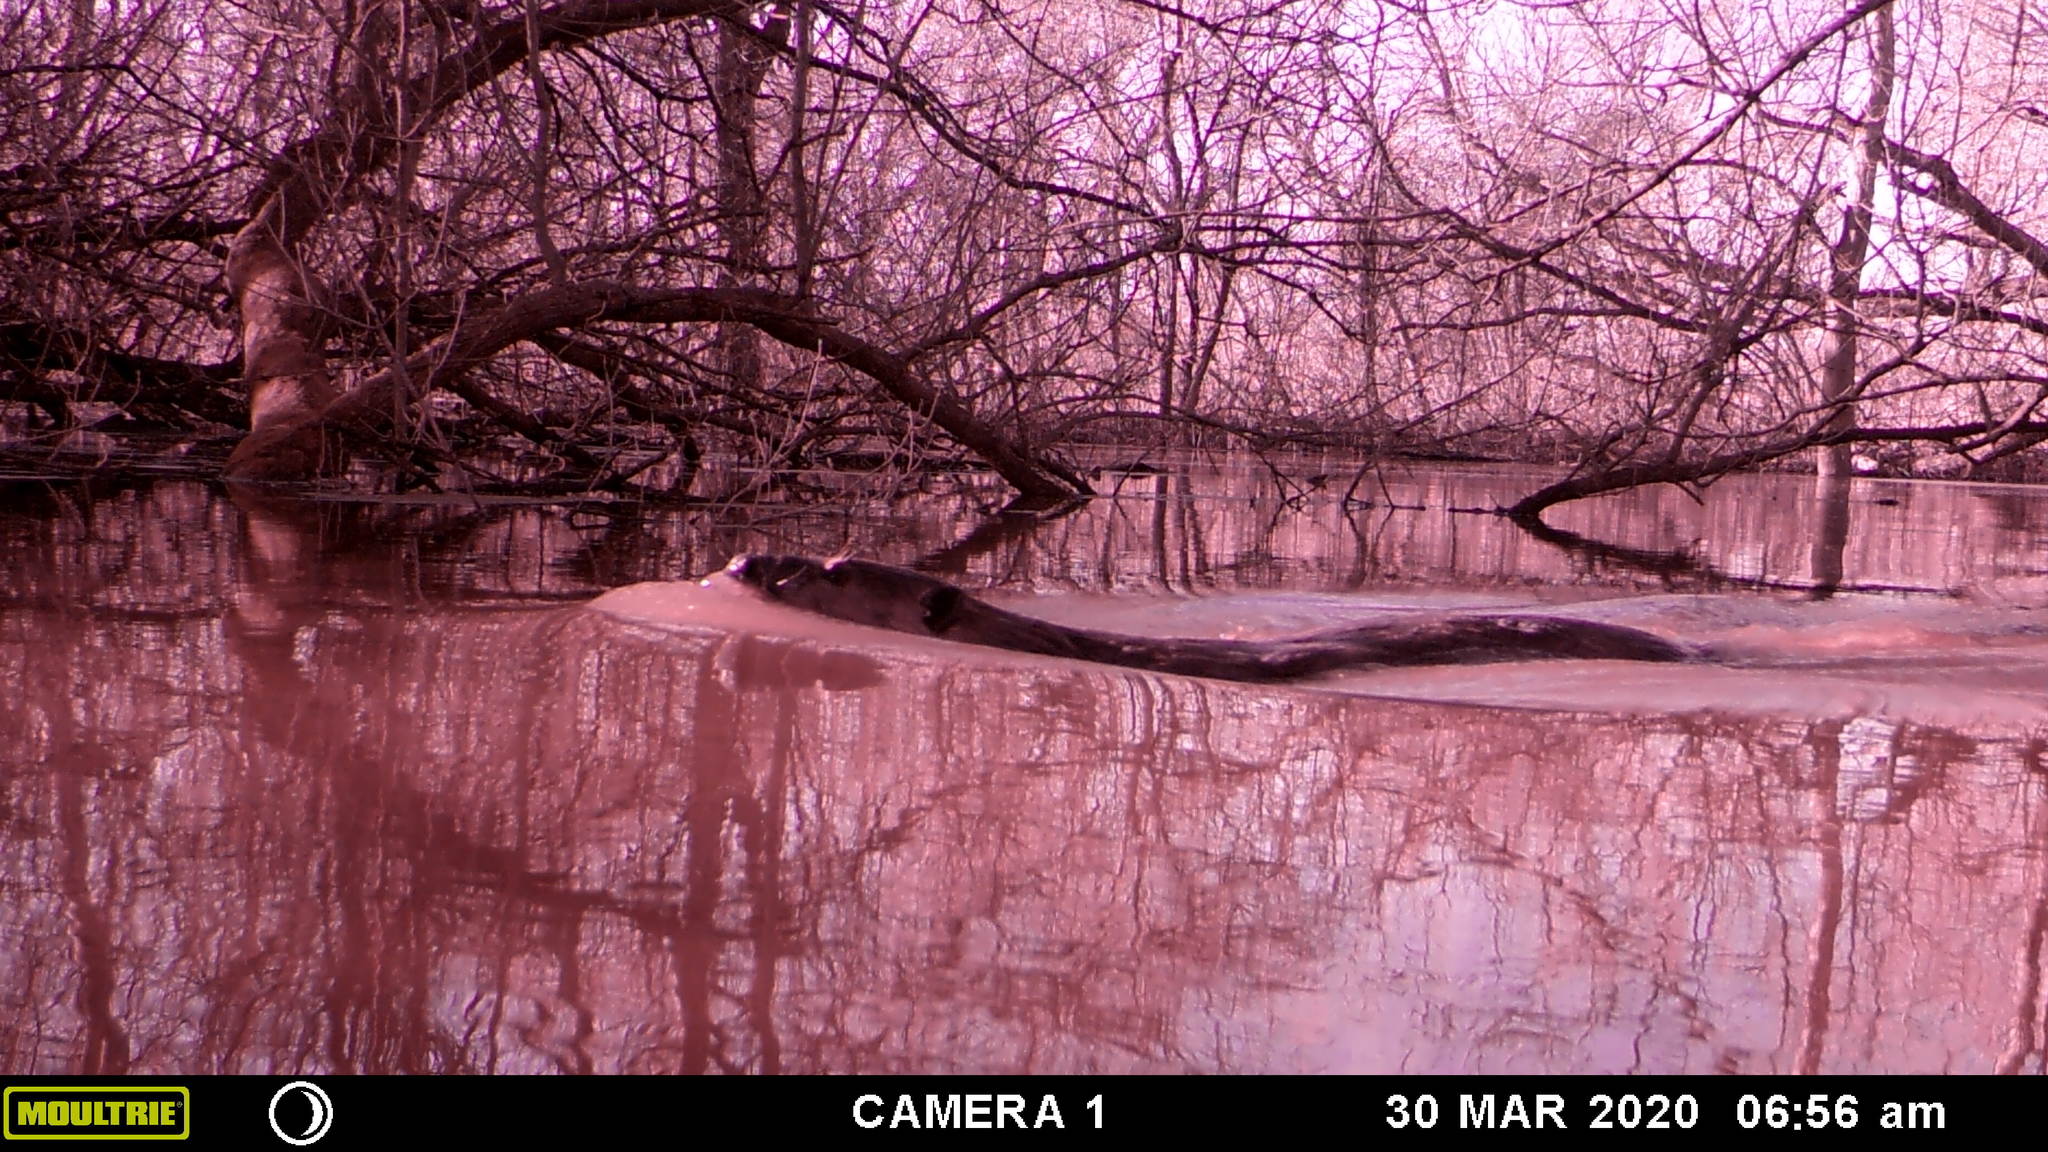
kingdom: Animalia
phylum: Chordata
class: Mammalia
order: Carnivora
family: Mustelidae
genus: Lontra
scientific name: Lontra canadensis
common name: North american river otter
